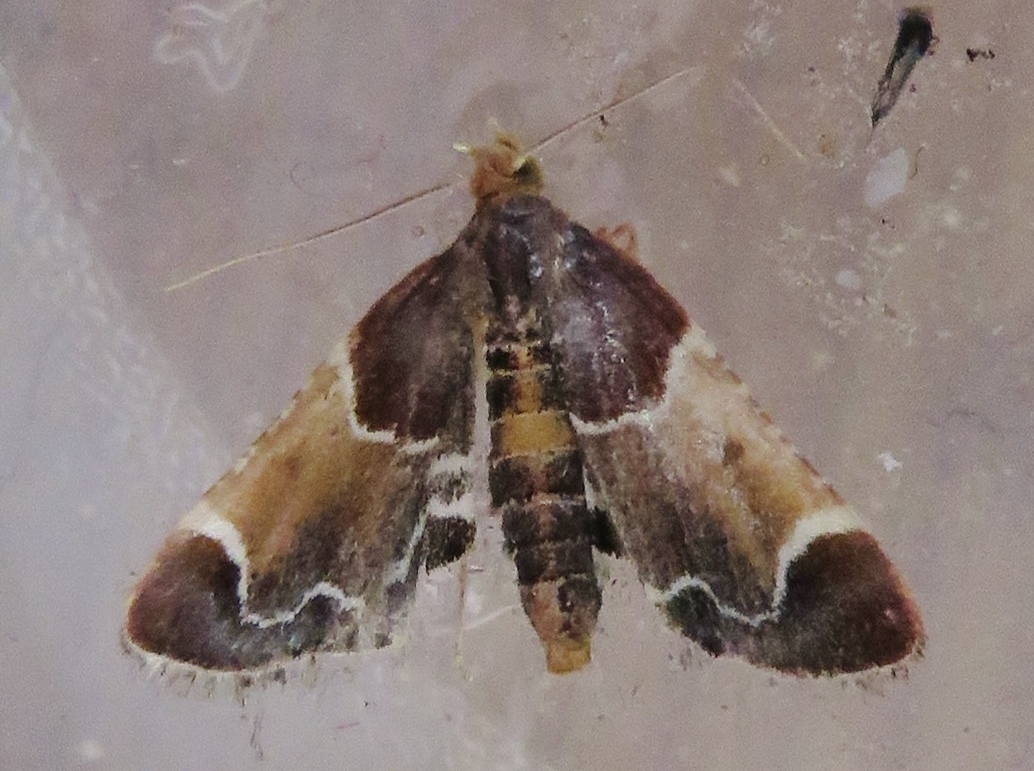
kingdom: Animalia
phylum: Arthropoda
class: Insecta
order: Lepidoptera
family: Pyralidae
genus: Pyralis
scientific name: Pyralis farinalis
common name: Meal moth
